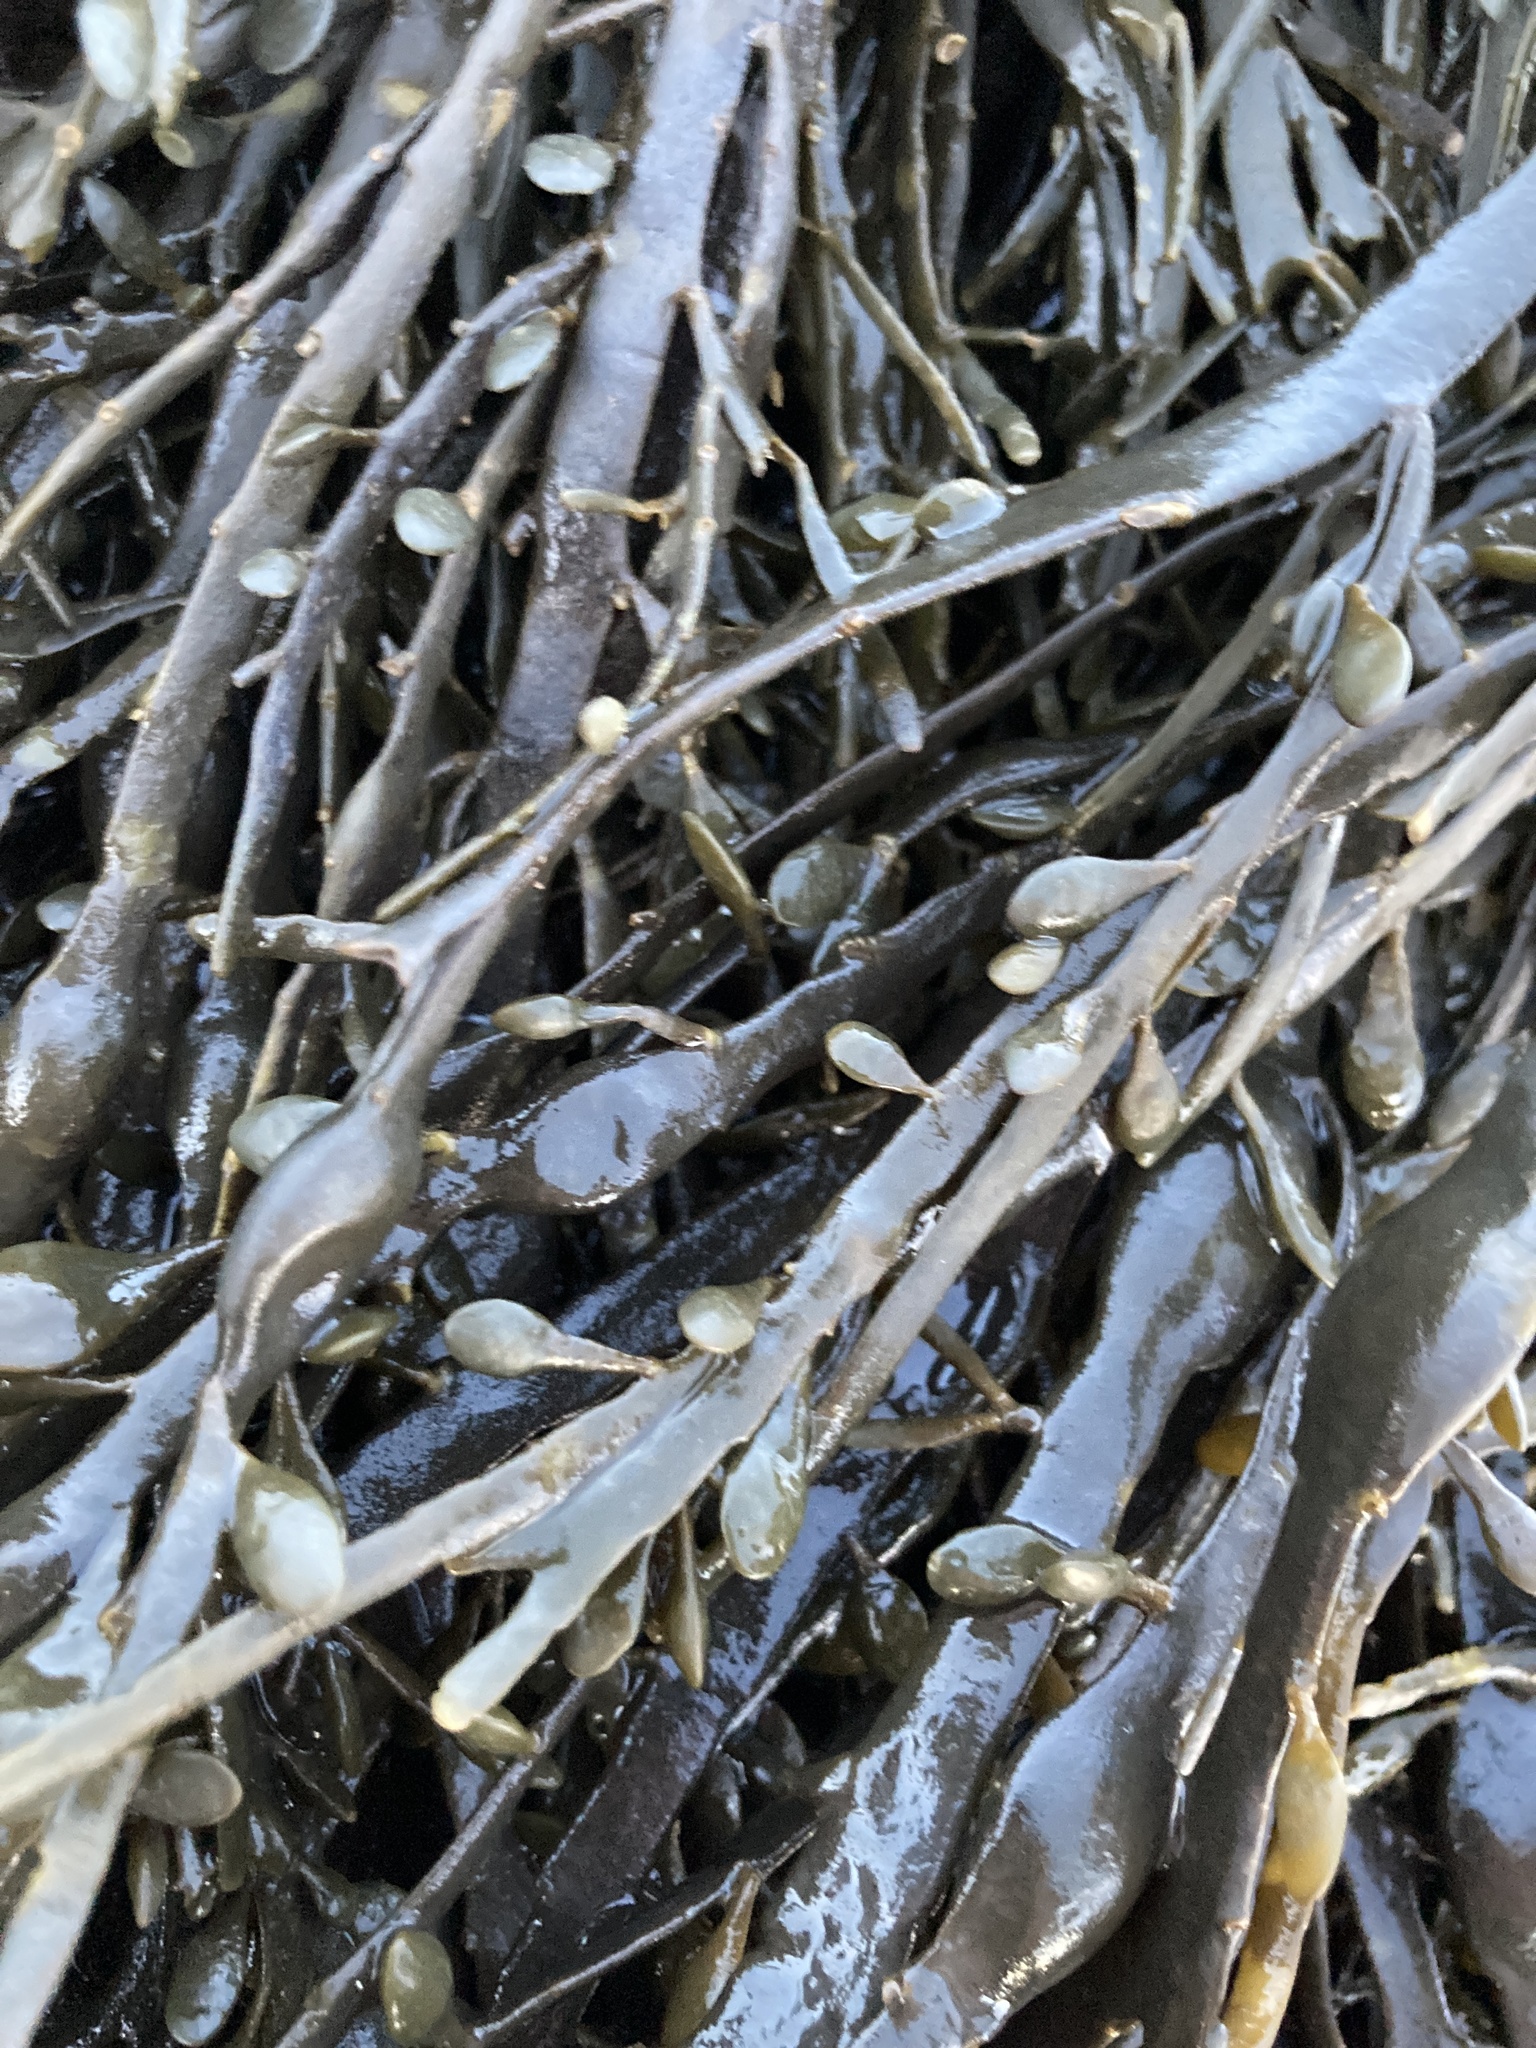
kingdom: Chromista
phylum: Ochrophyta
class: Phaeophyceae
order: Fucales
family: Fucaceae
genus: Ascophyllum
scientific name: Ascophyllum nodosum
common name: Knotted wrack
